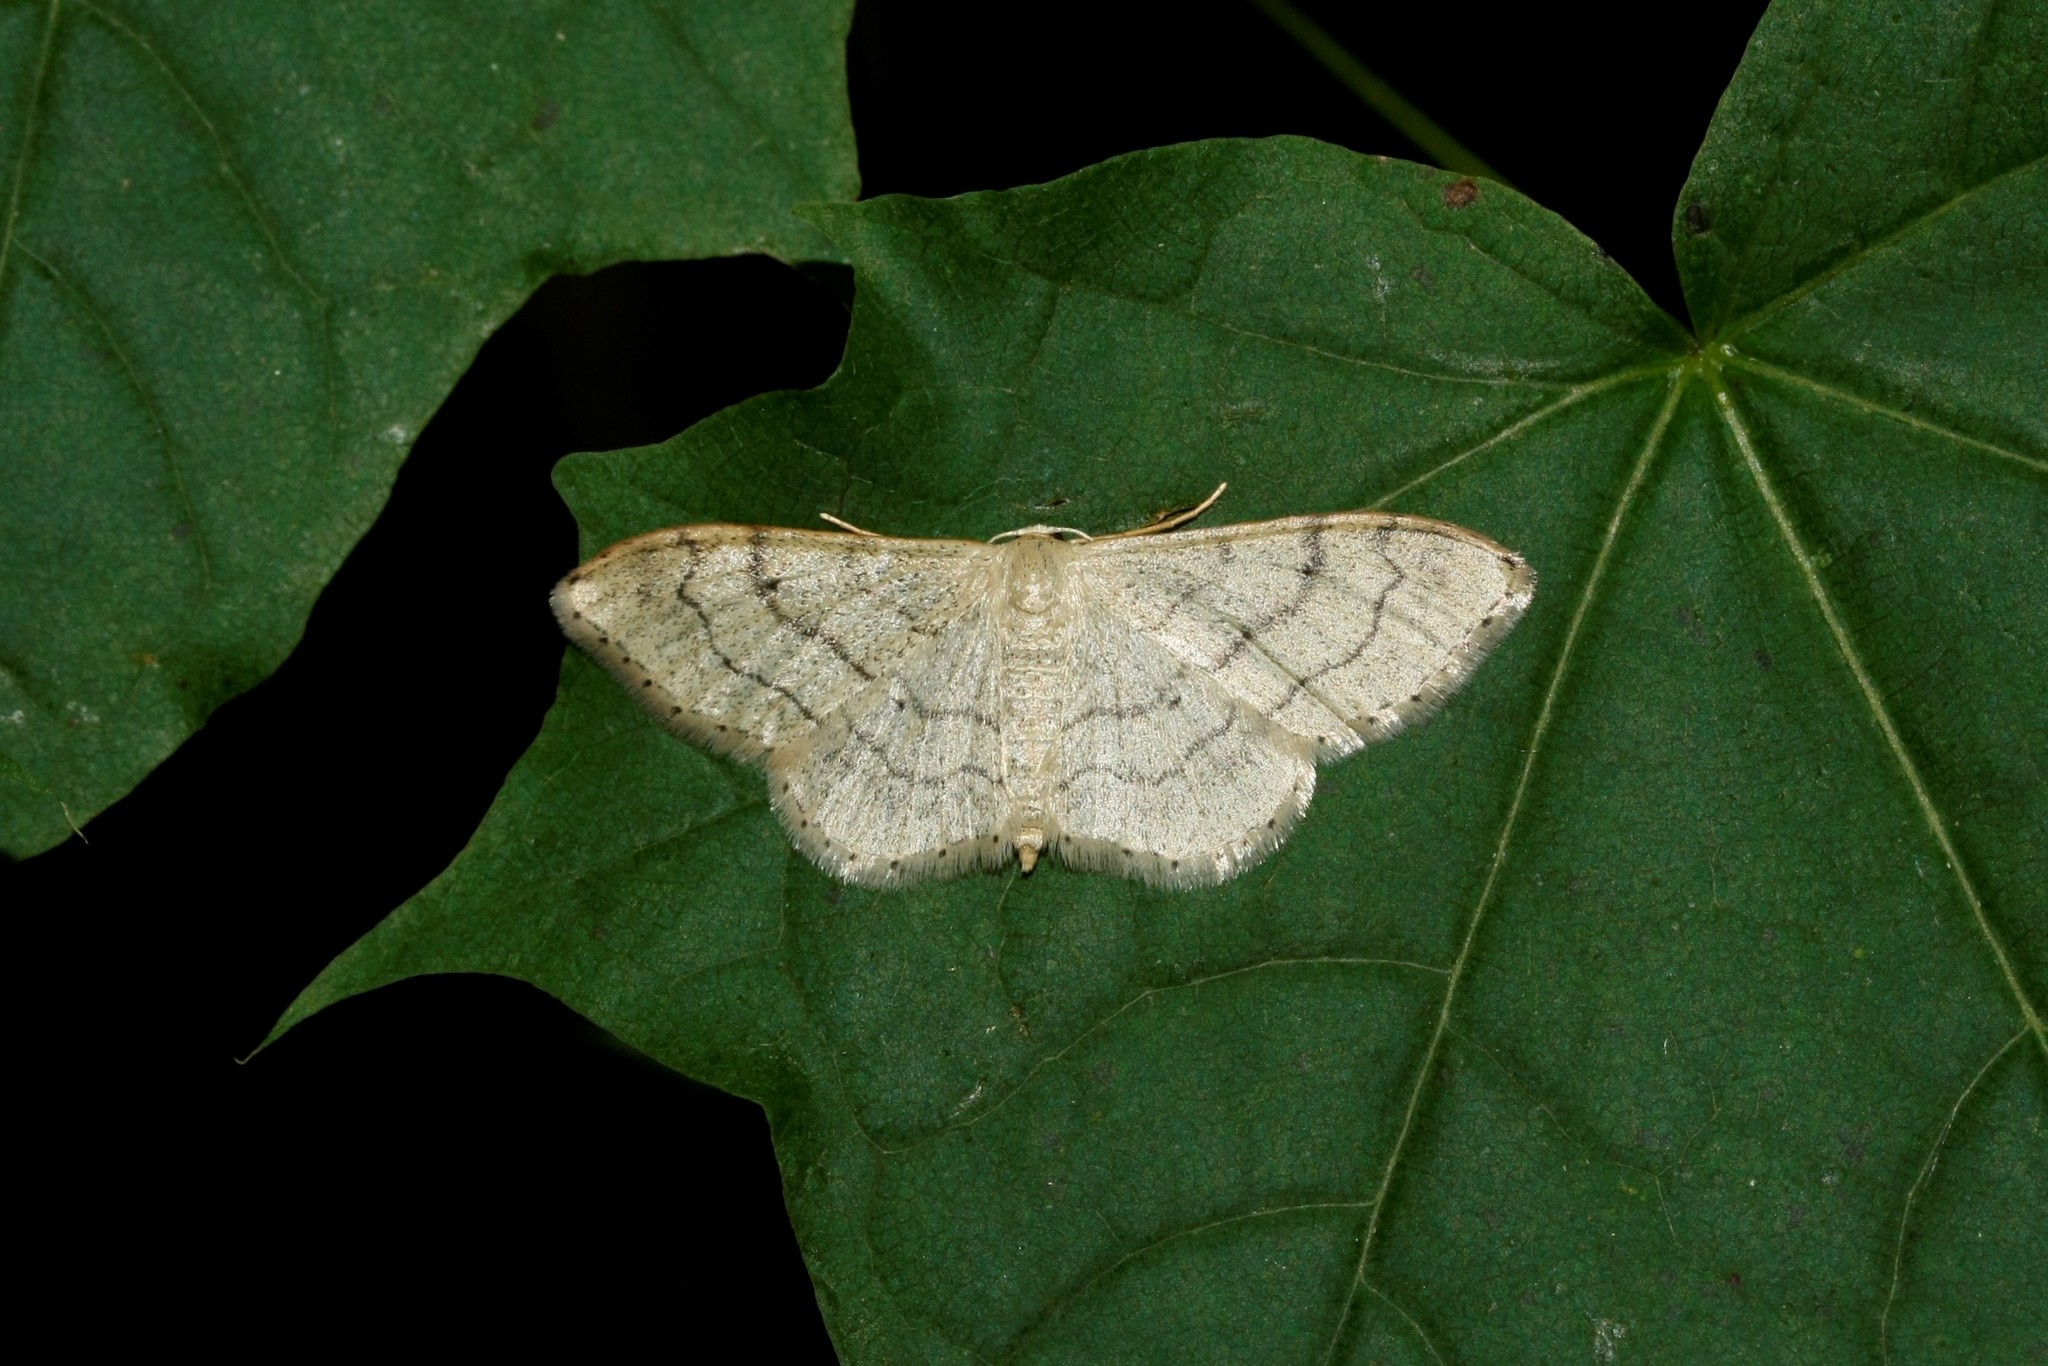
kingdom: Animalia
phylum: Arthropoda
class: Insecta
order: Lepidoptera
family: Geometridae
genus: Idaea
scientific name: Idaea aversata
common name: Riband wave
